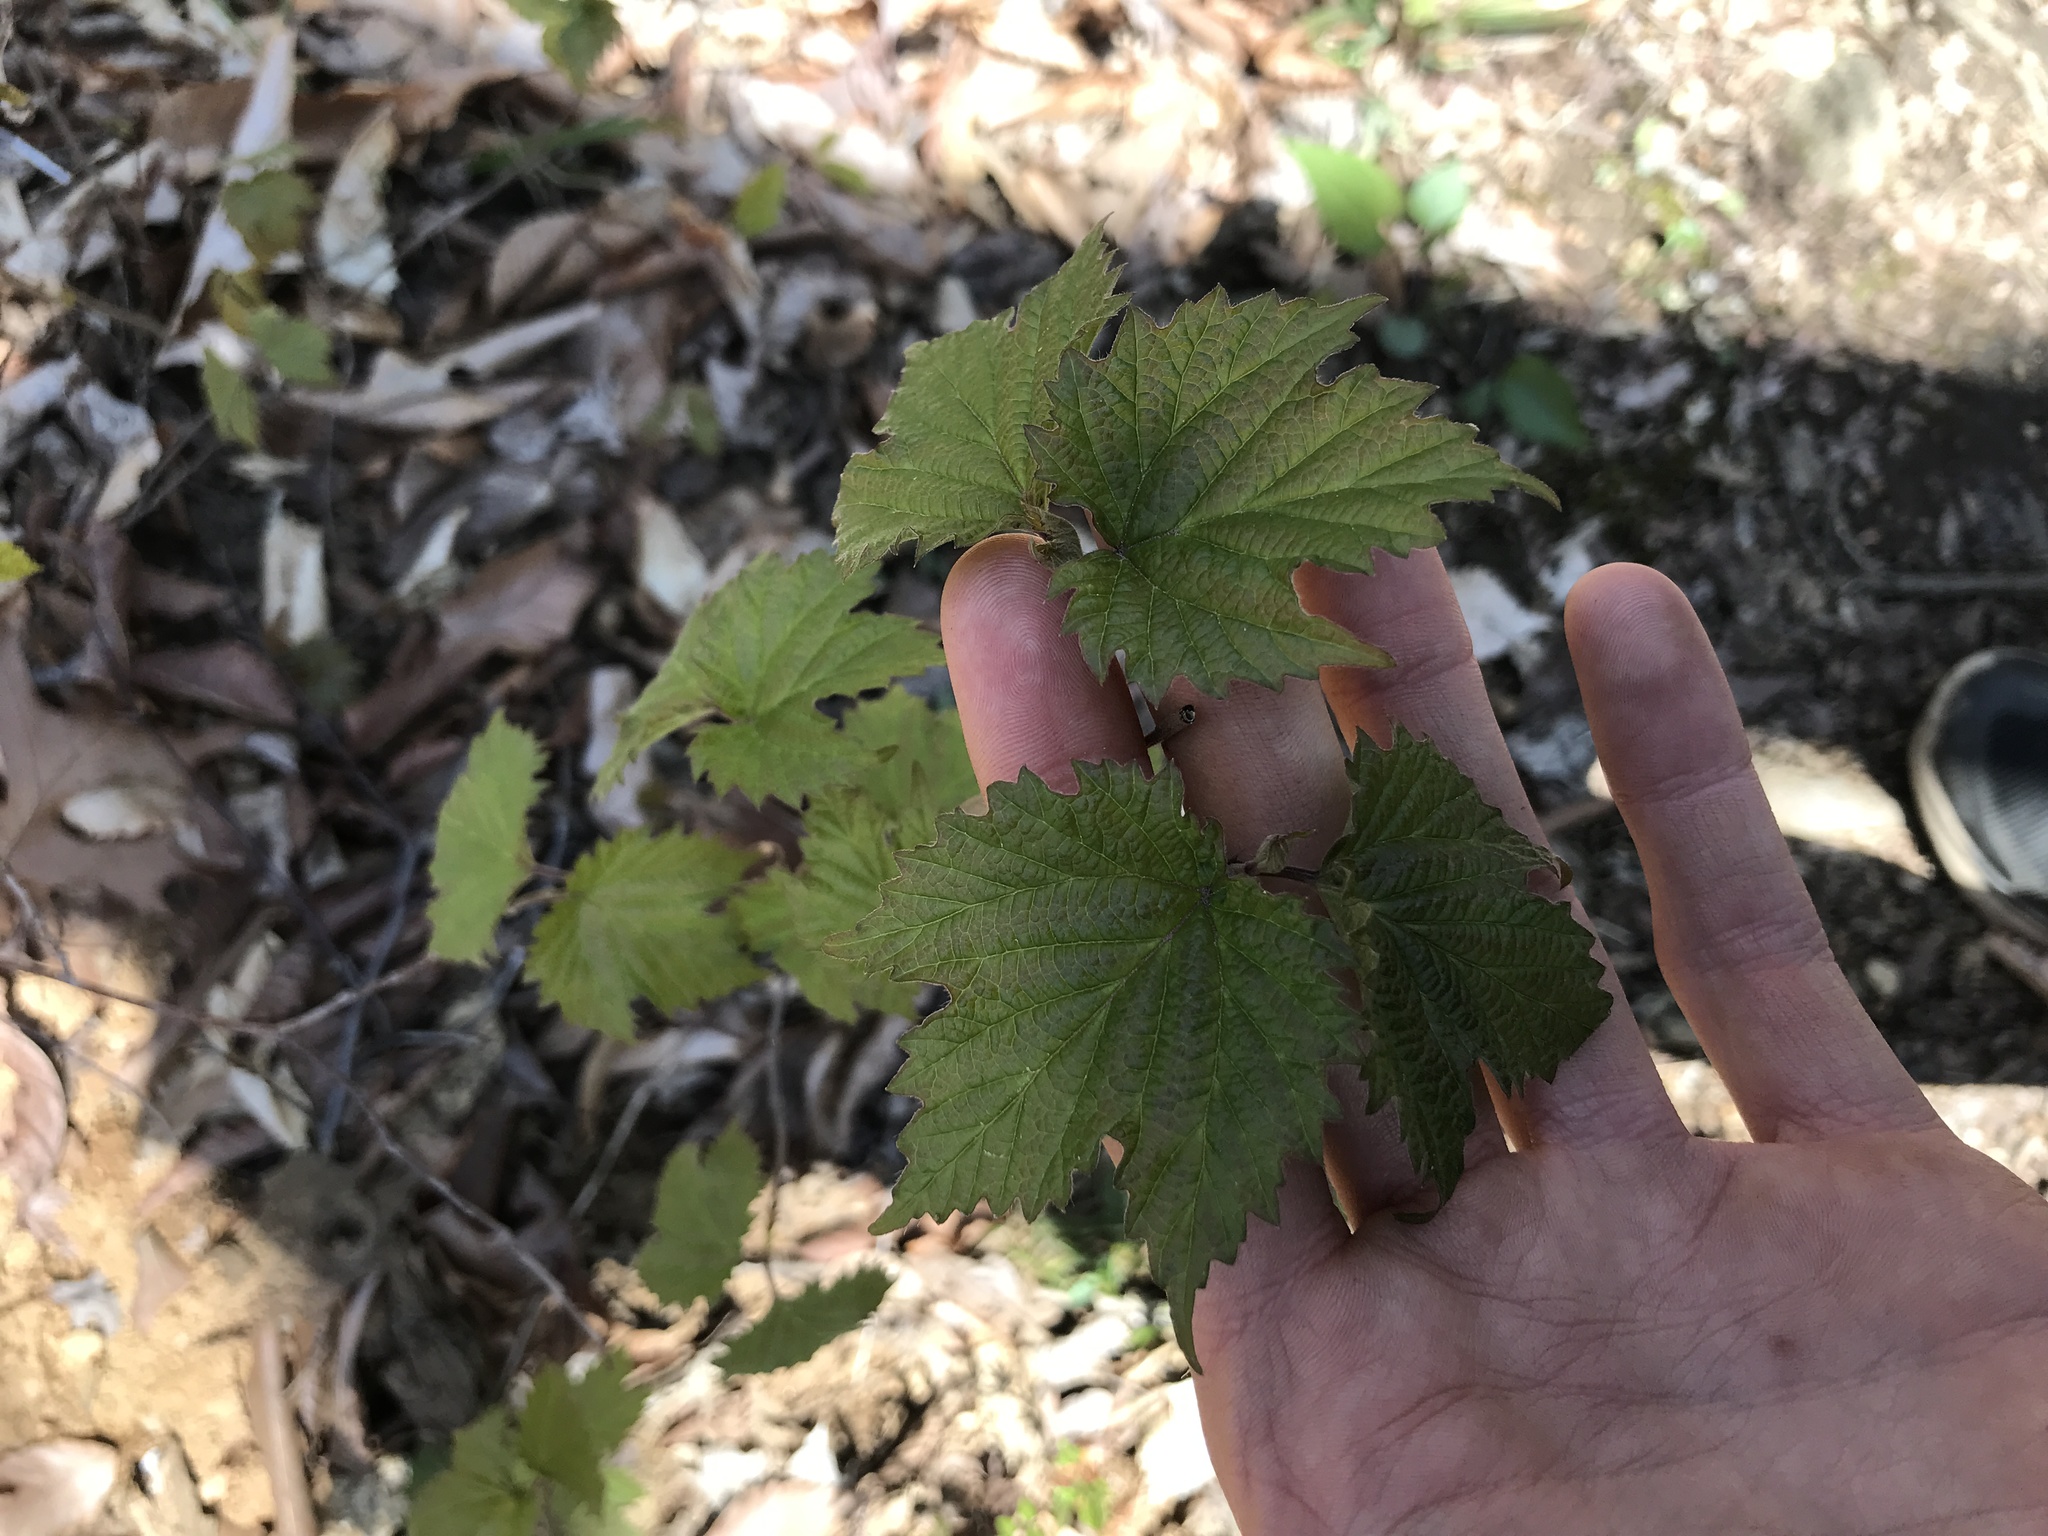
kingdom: Plantae
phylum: Tracheophyta
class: Magnoliopsida
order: Dipsacales
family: Viburnaceae
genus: Viburnum
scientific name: Viburnum acerifolium
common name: Dockmackie
